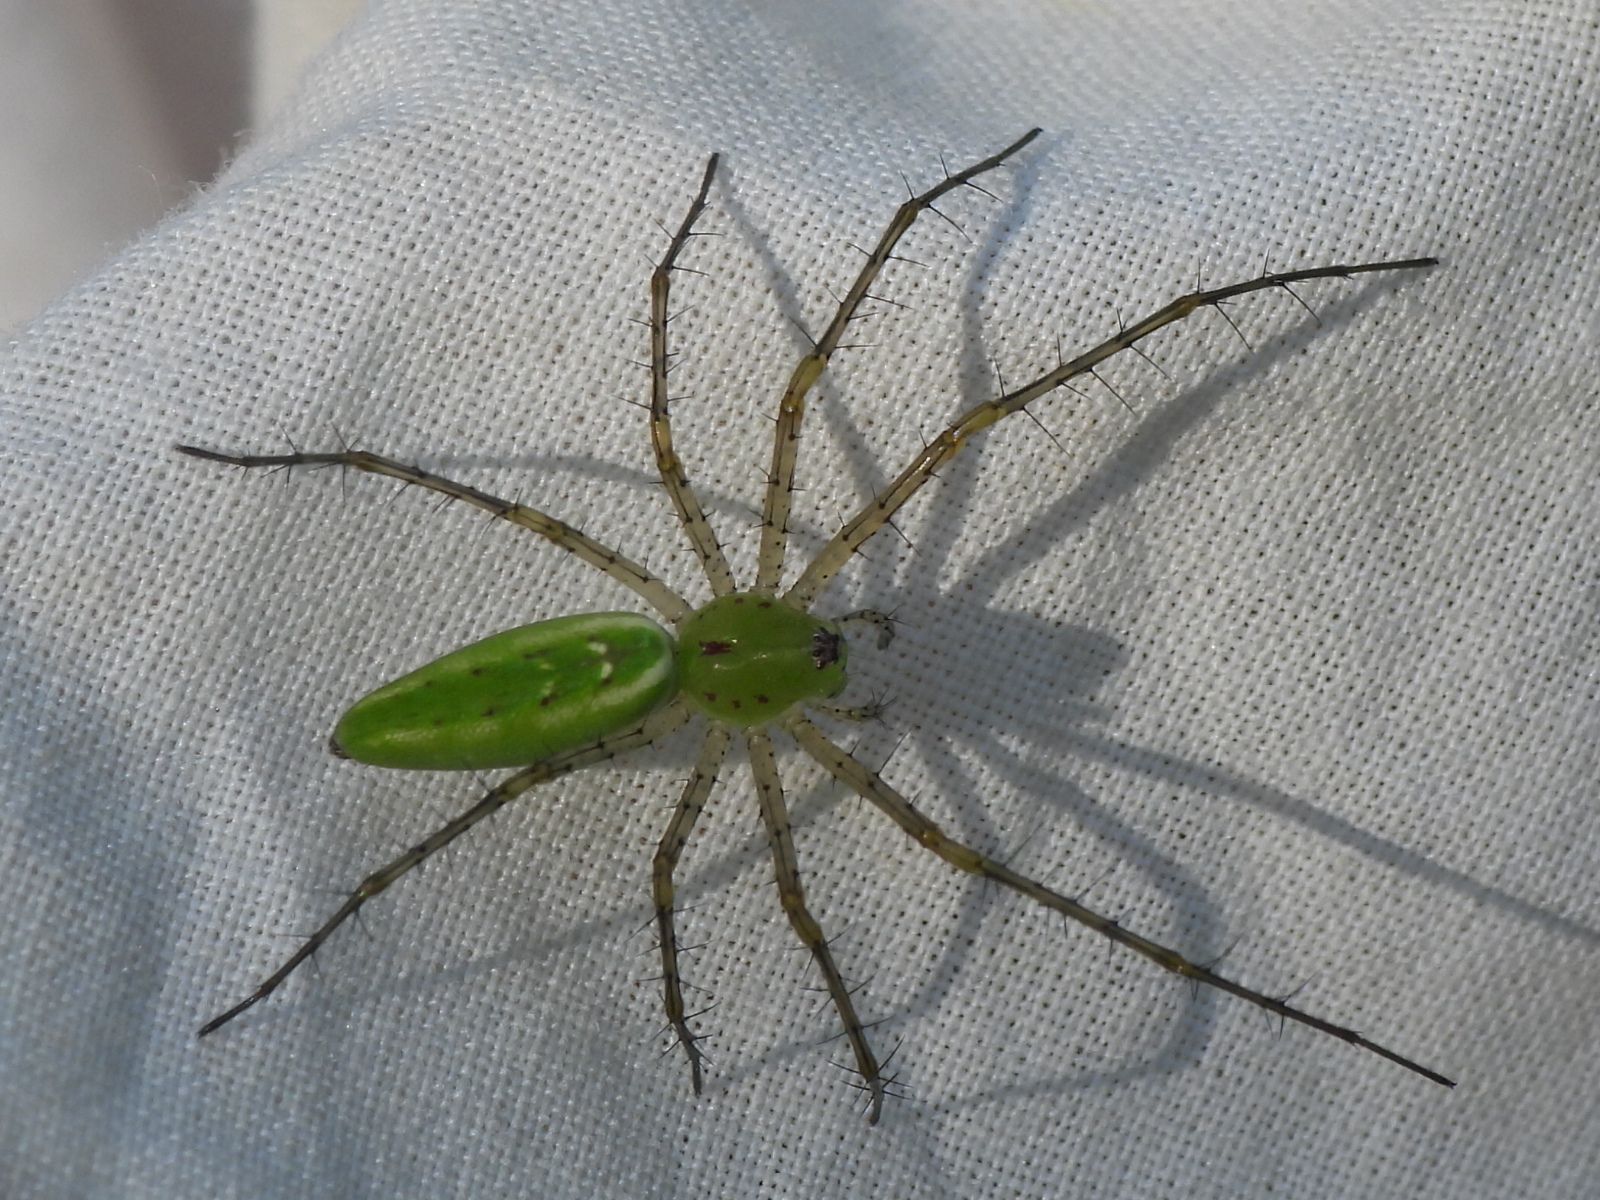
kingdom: Animalia
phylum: Arthropoda
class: Arachnida
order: Araneae
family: Oxyopidae
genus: Peucetia
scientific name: Peucetia viridans
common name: Lynx spiders
